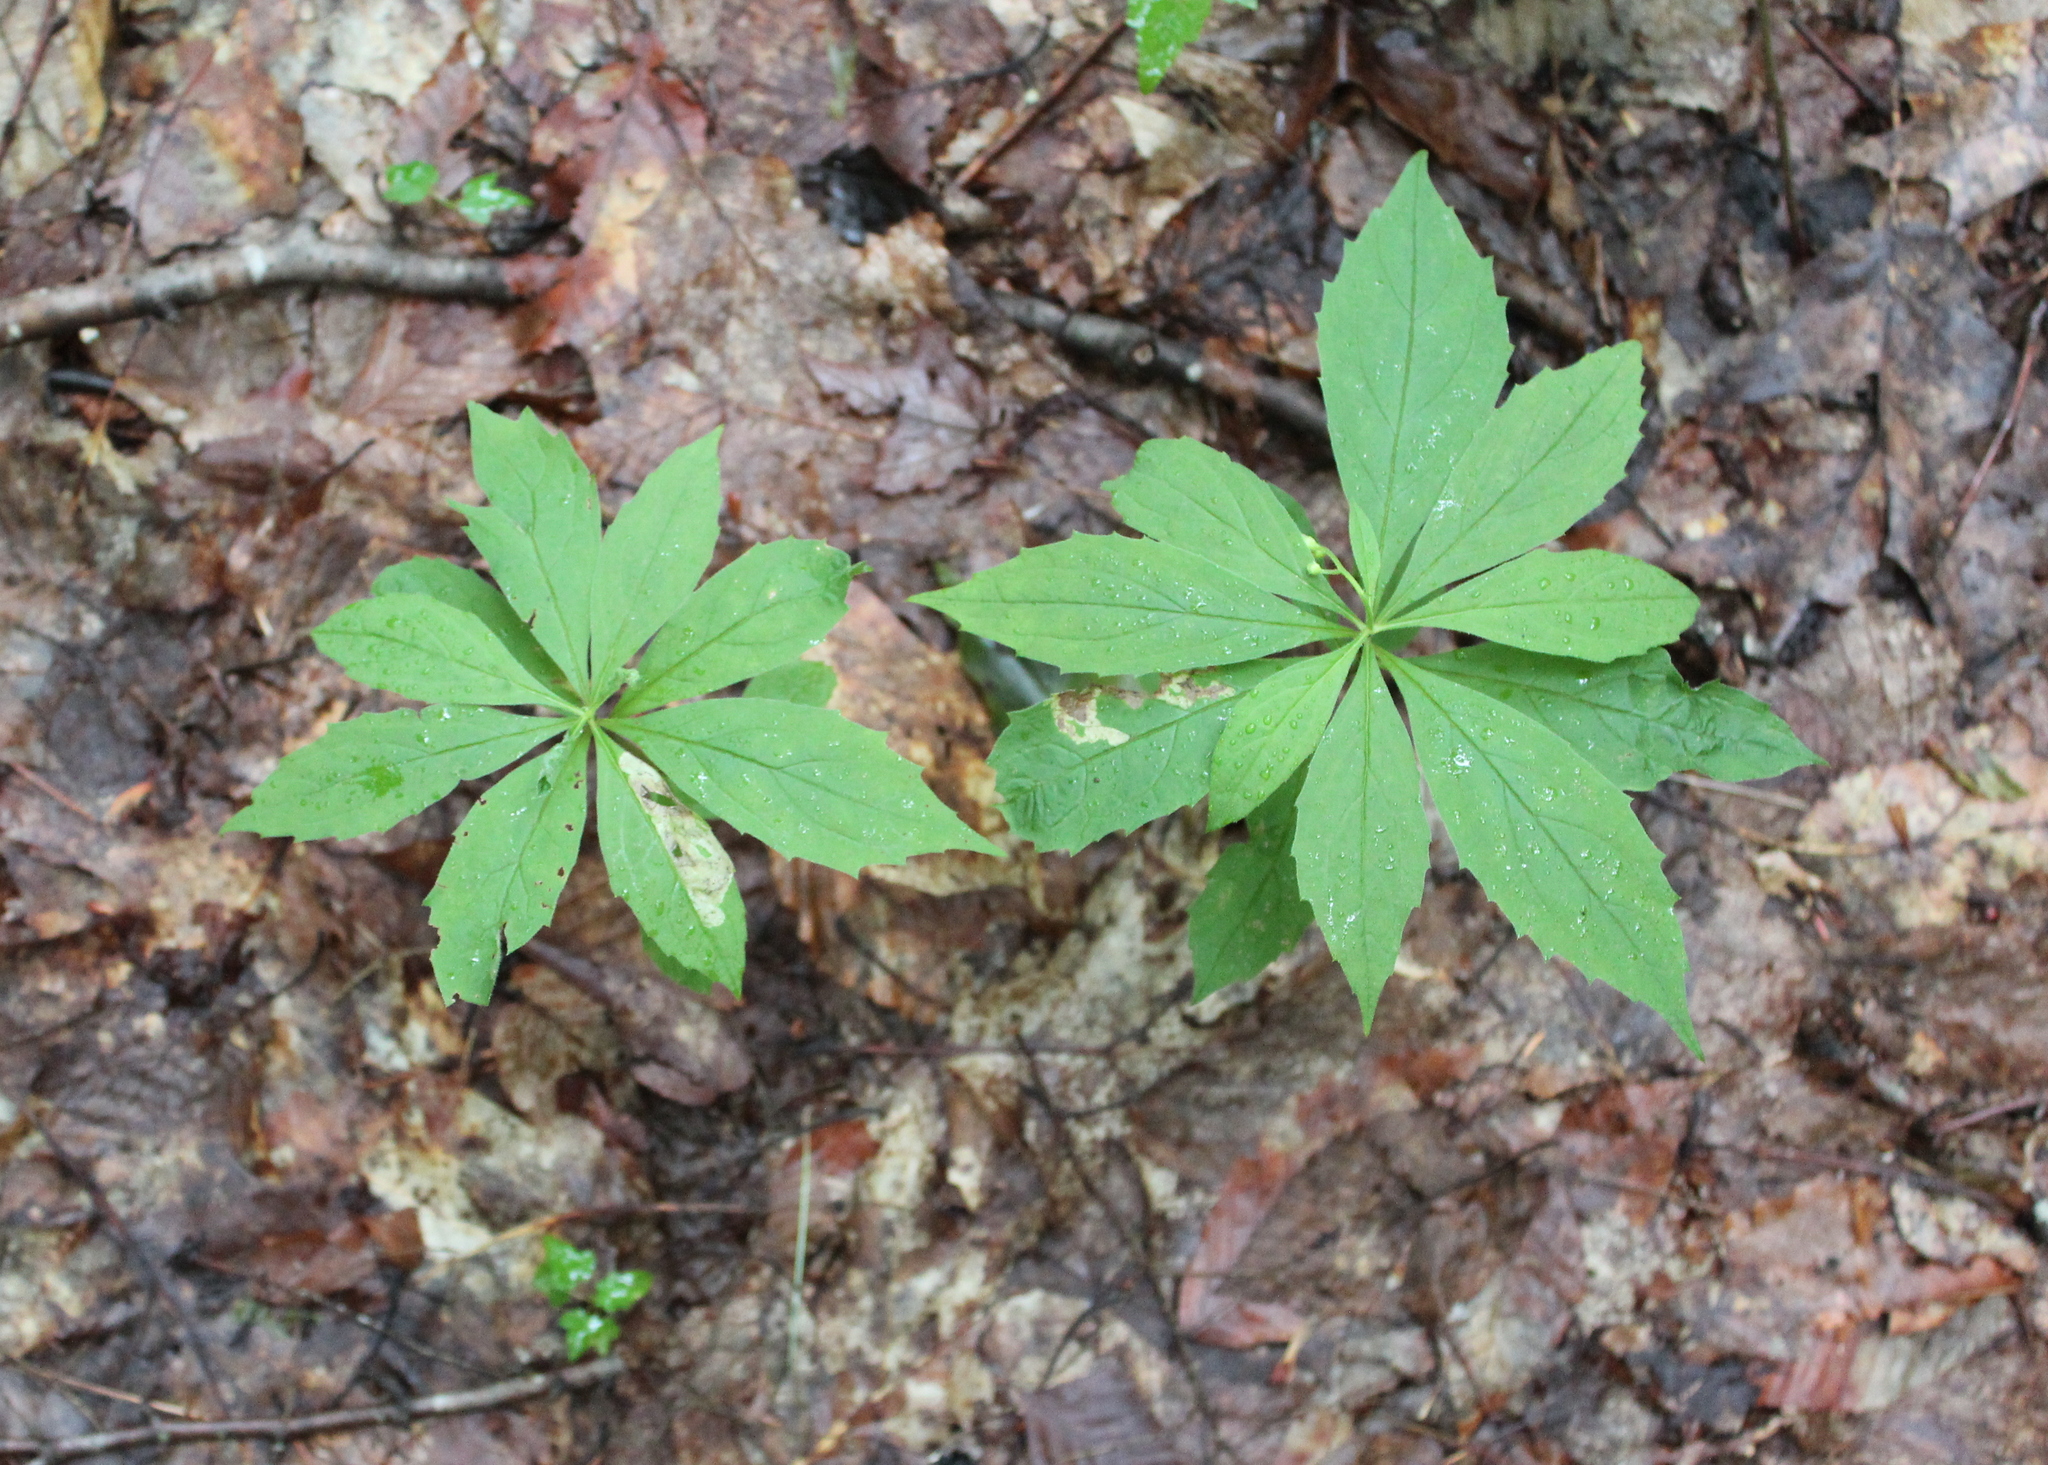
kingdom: Plantae
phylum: Tracheophyta
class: Magnoliopsida
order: Asterales
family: Asteraceae
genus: Oclemena
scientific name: Oclemena acuminata
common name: Mountain aster
